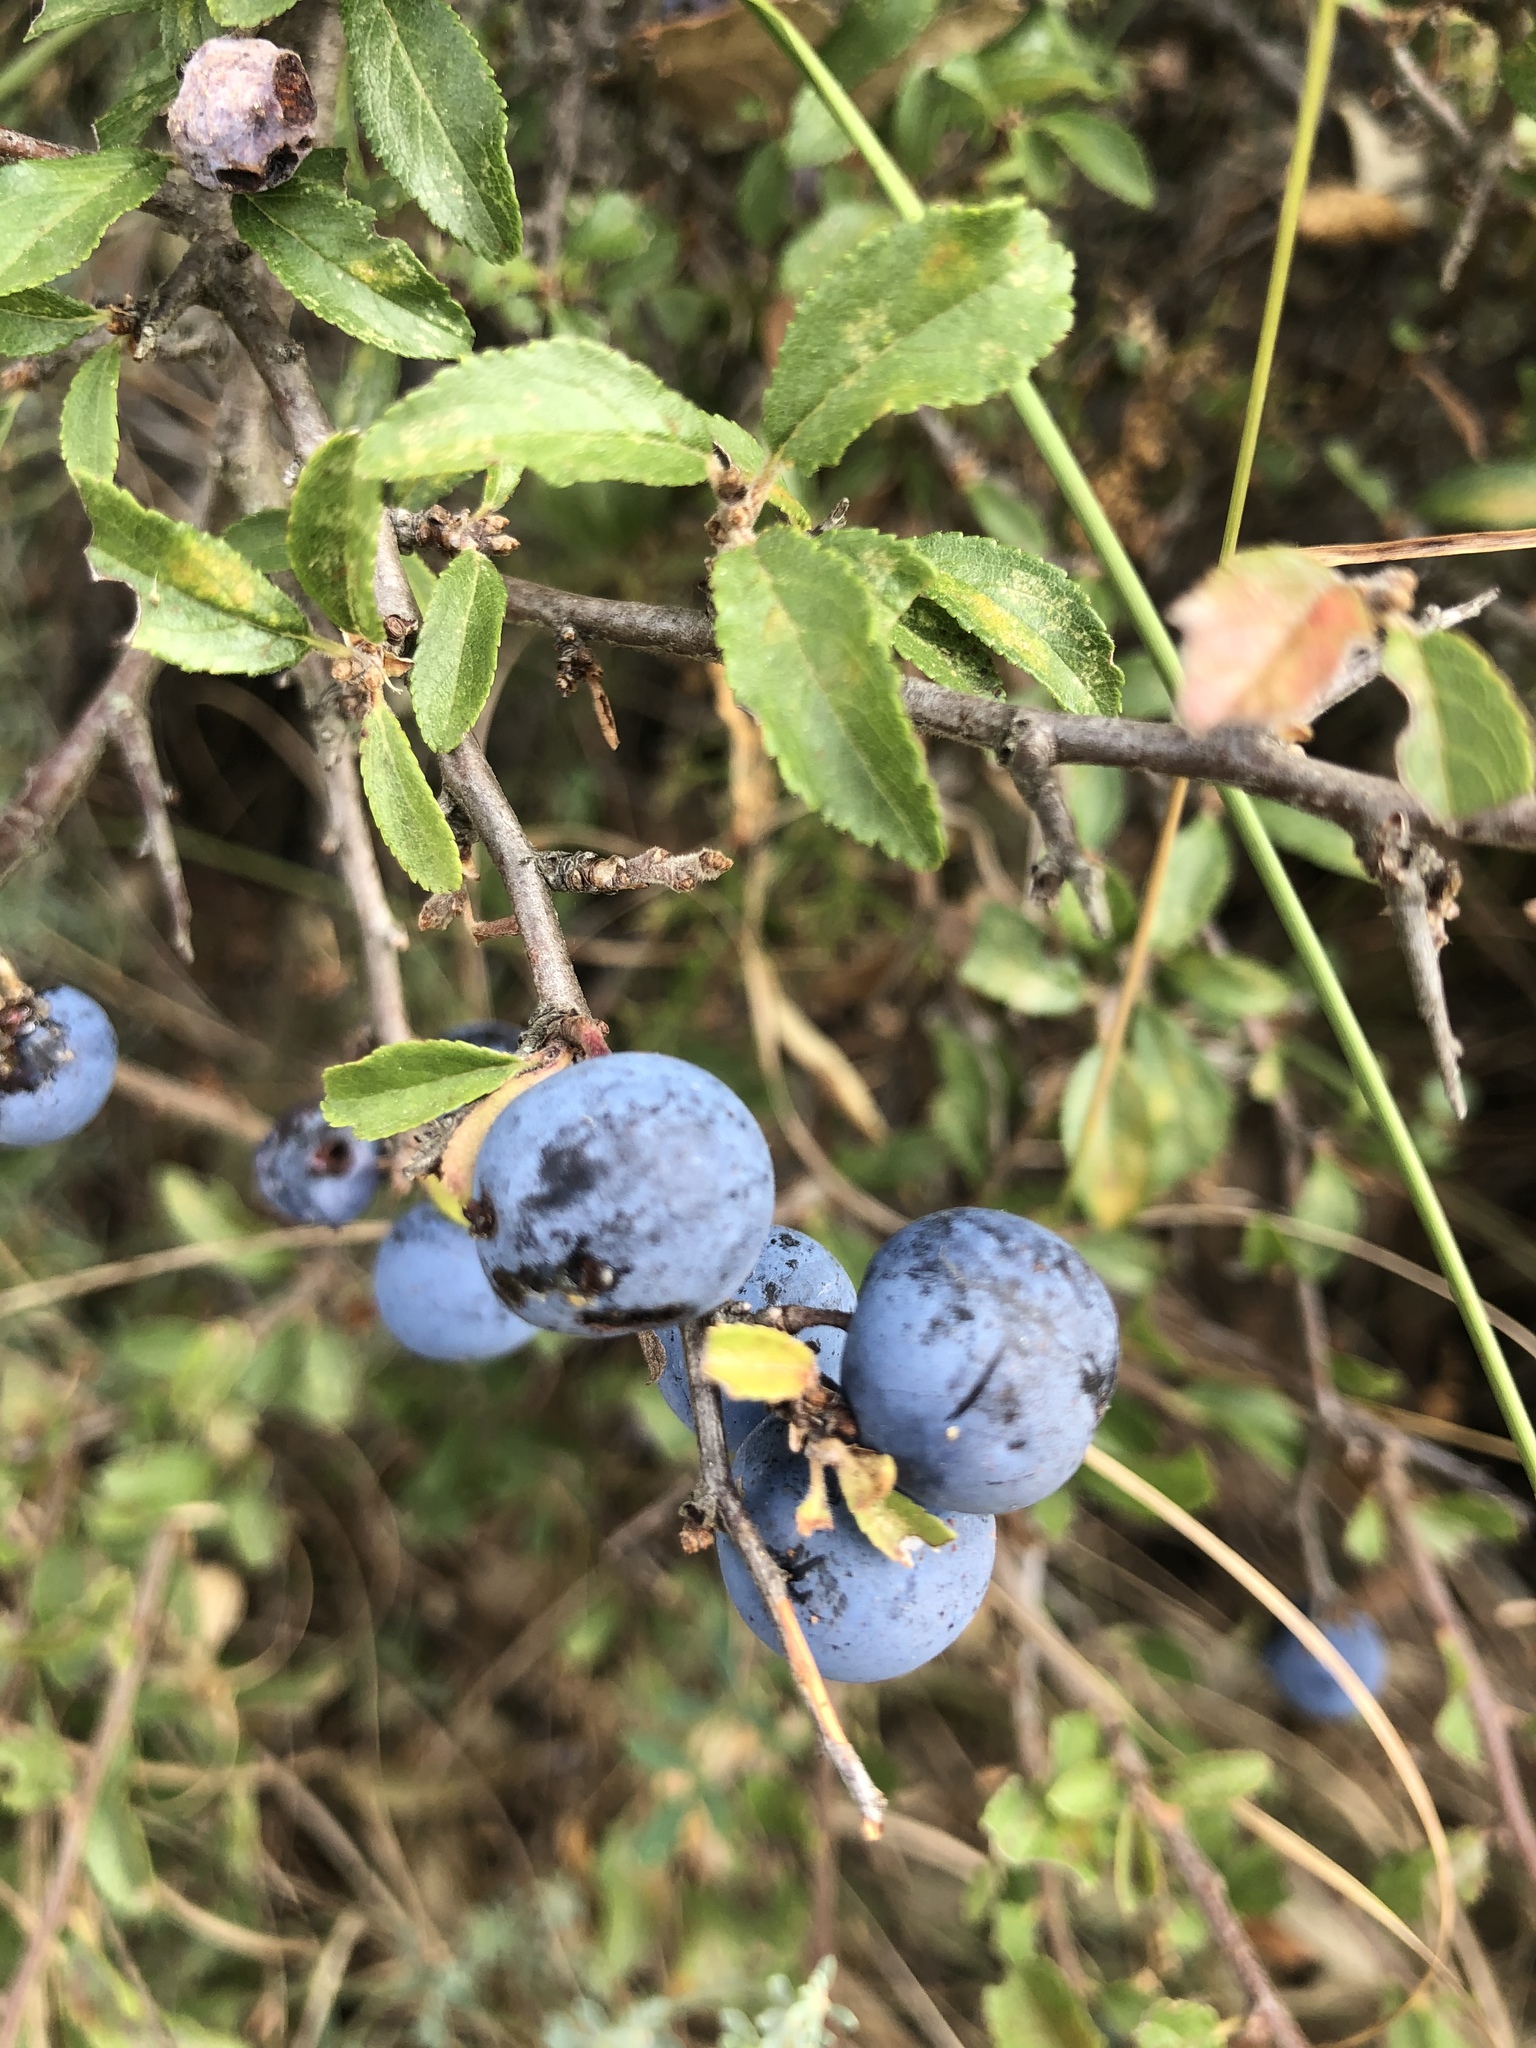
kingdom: Plantae
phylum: Tracheophyta
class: Magnoliopsida
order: Rosales
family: Rosaceae
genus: Prunus
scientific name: Prunus spinosa
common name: Blackthorn
